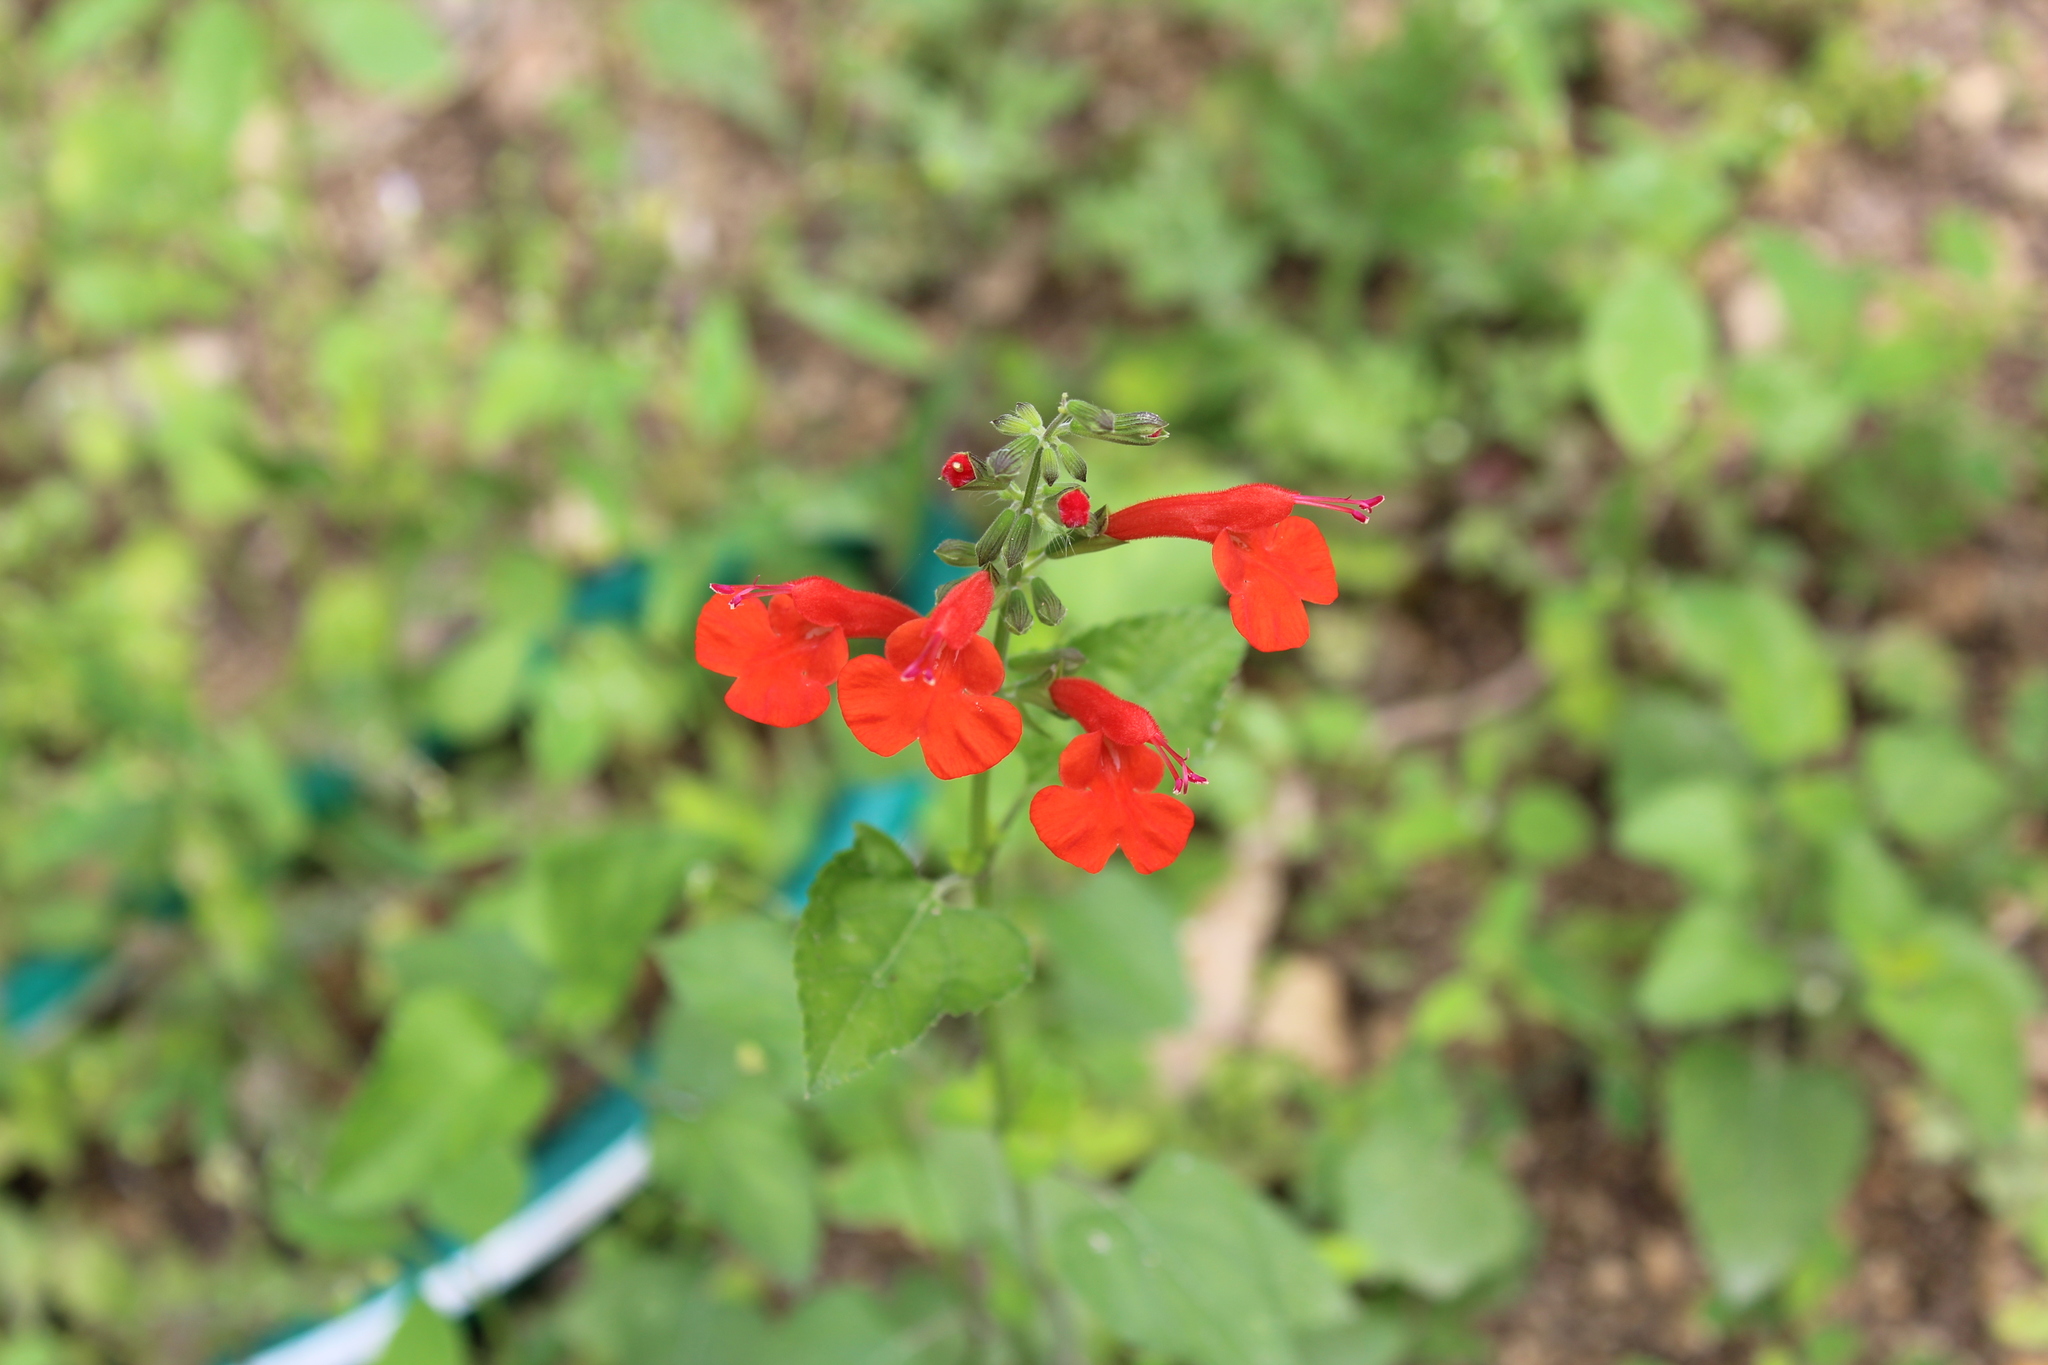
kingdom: Plantae
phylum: Tracheophyta
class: Magnoliopsida
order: Lamiales
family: Lamiaceae
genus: Salvia
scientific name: Salvia coccinea
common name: Blood sage
